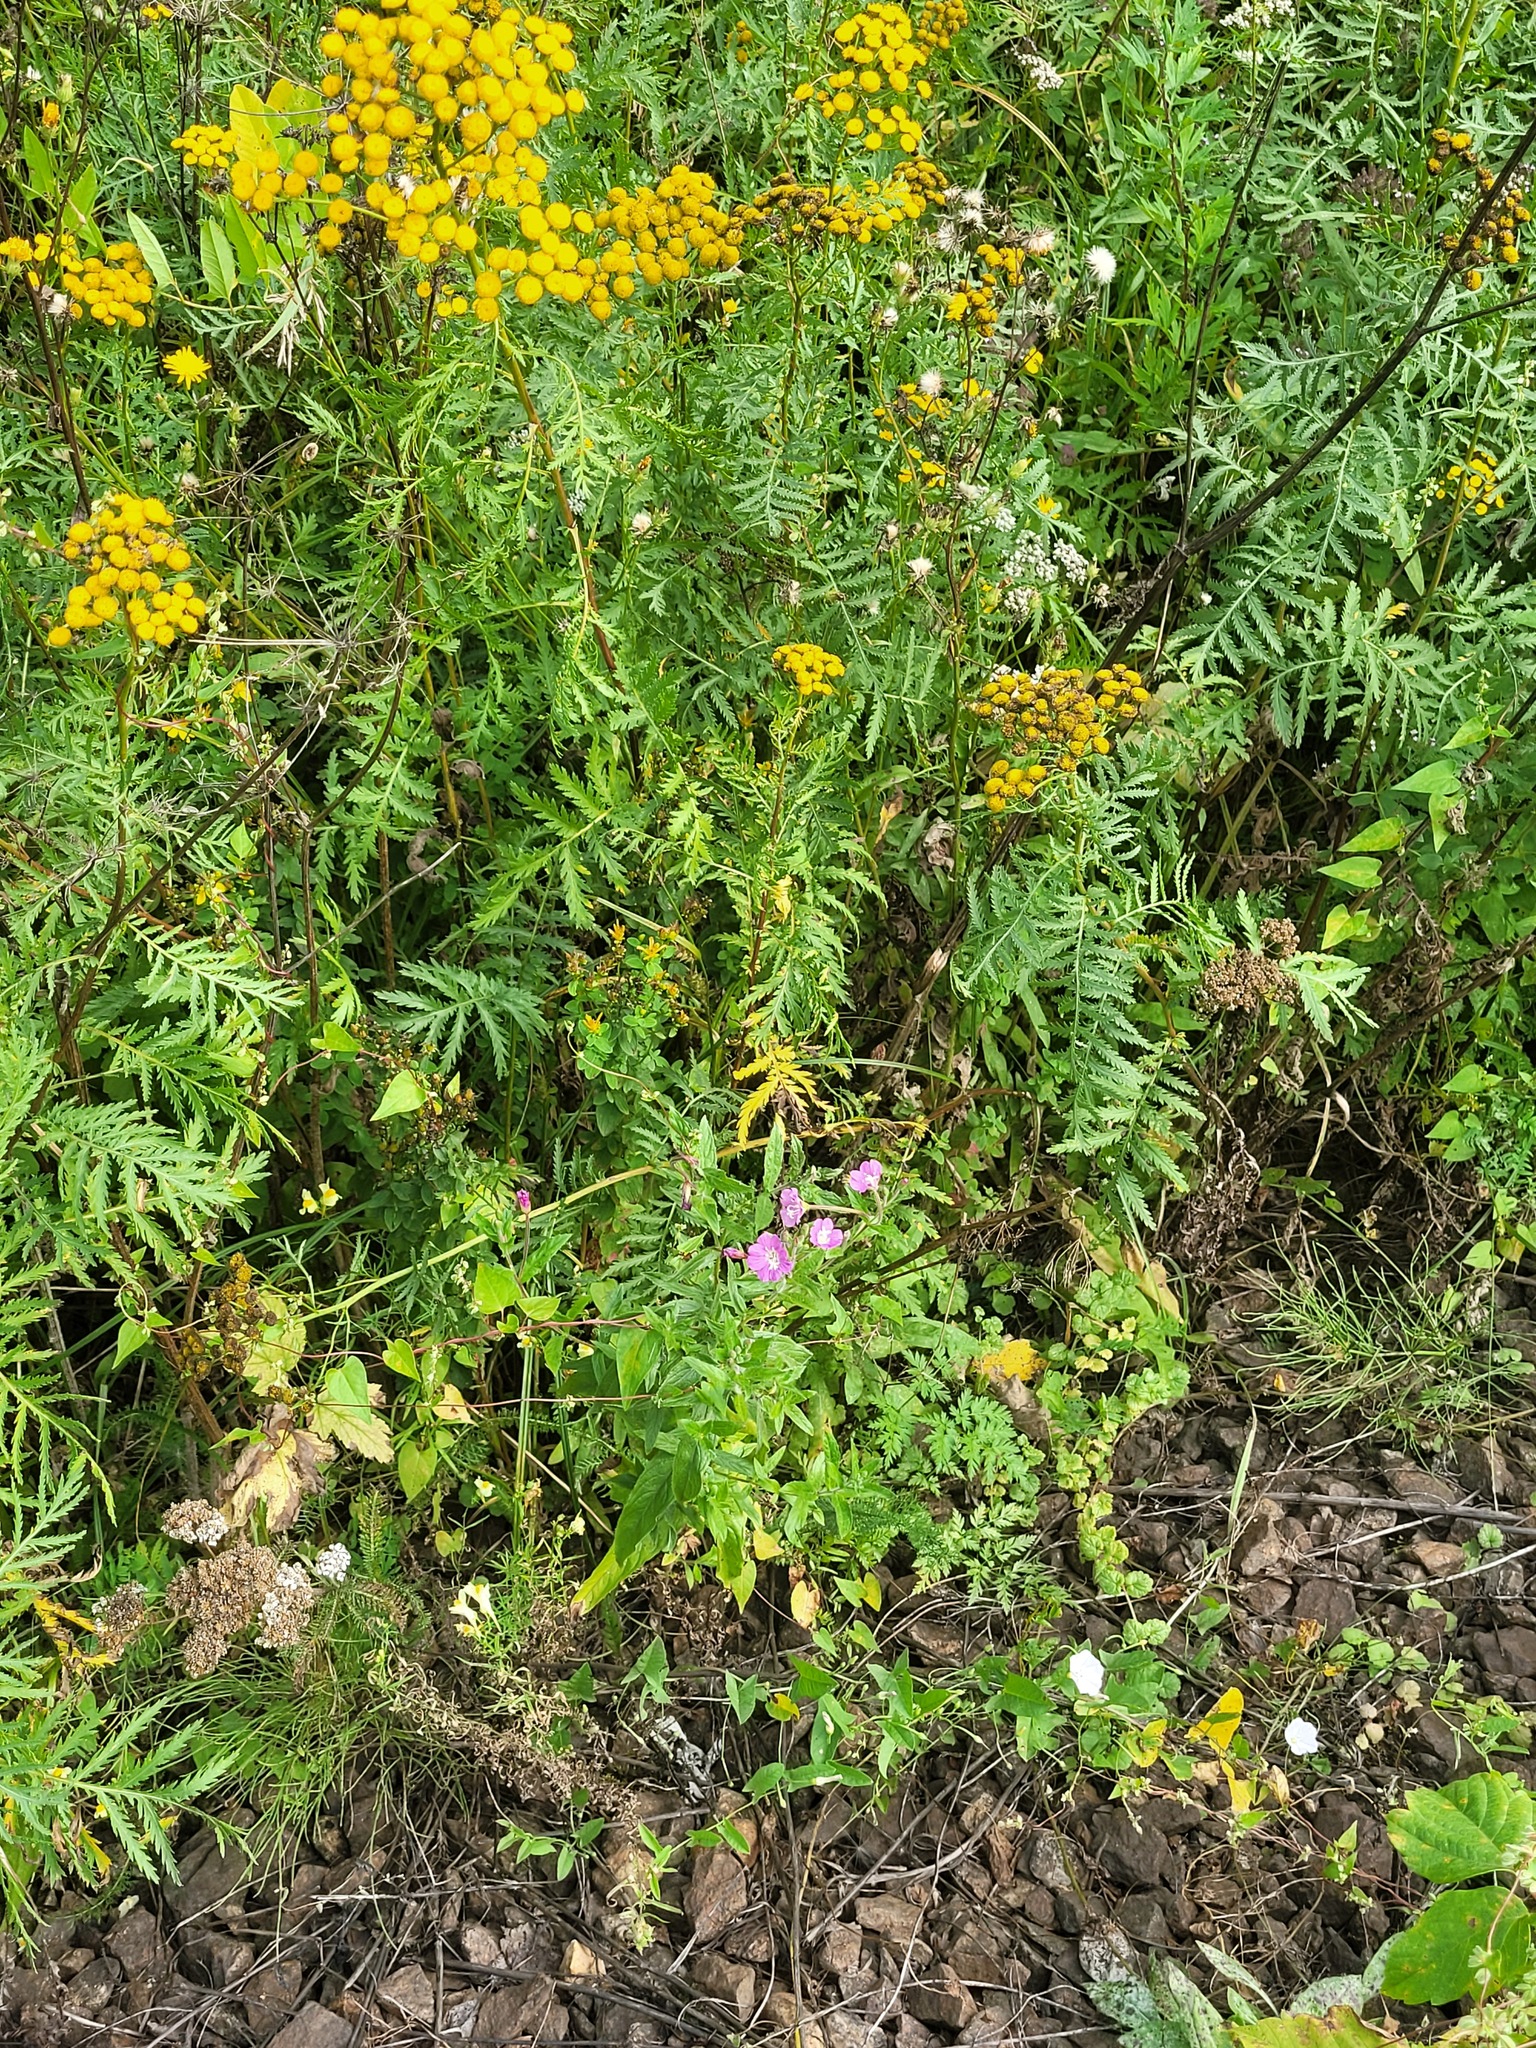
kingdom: Plantae
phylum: Tracheophyta
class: Magnoliopsida
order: Myrtales
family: Onagraceae
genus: Epilobium
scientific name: Epilobium hirsutum
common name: Great willowherb
